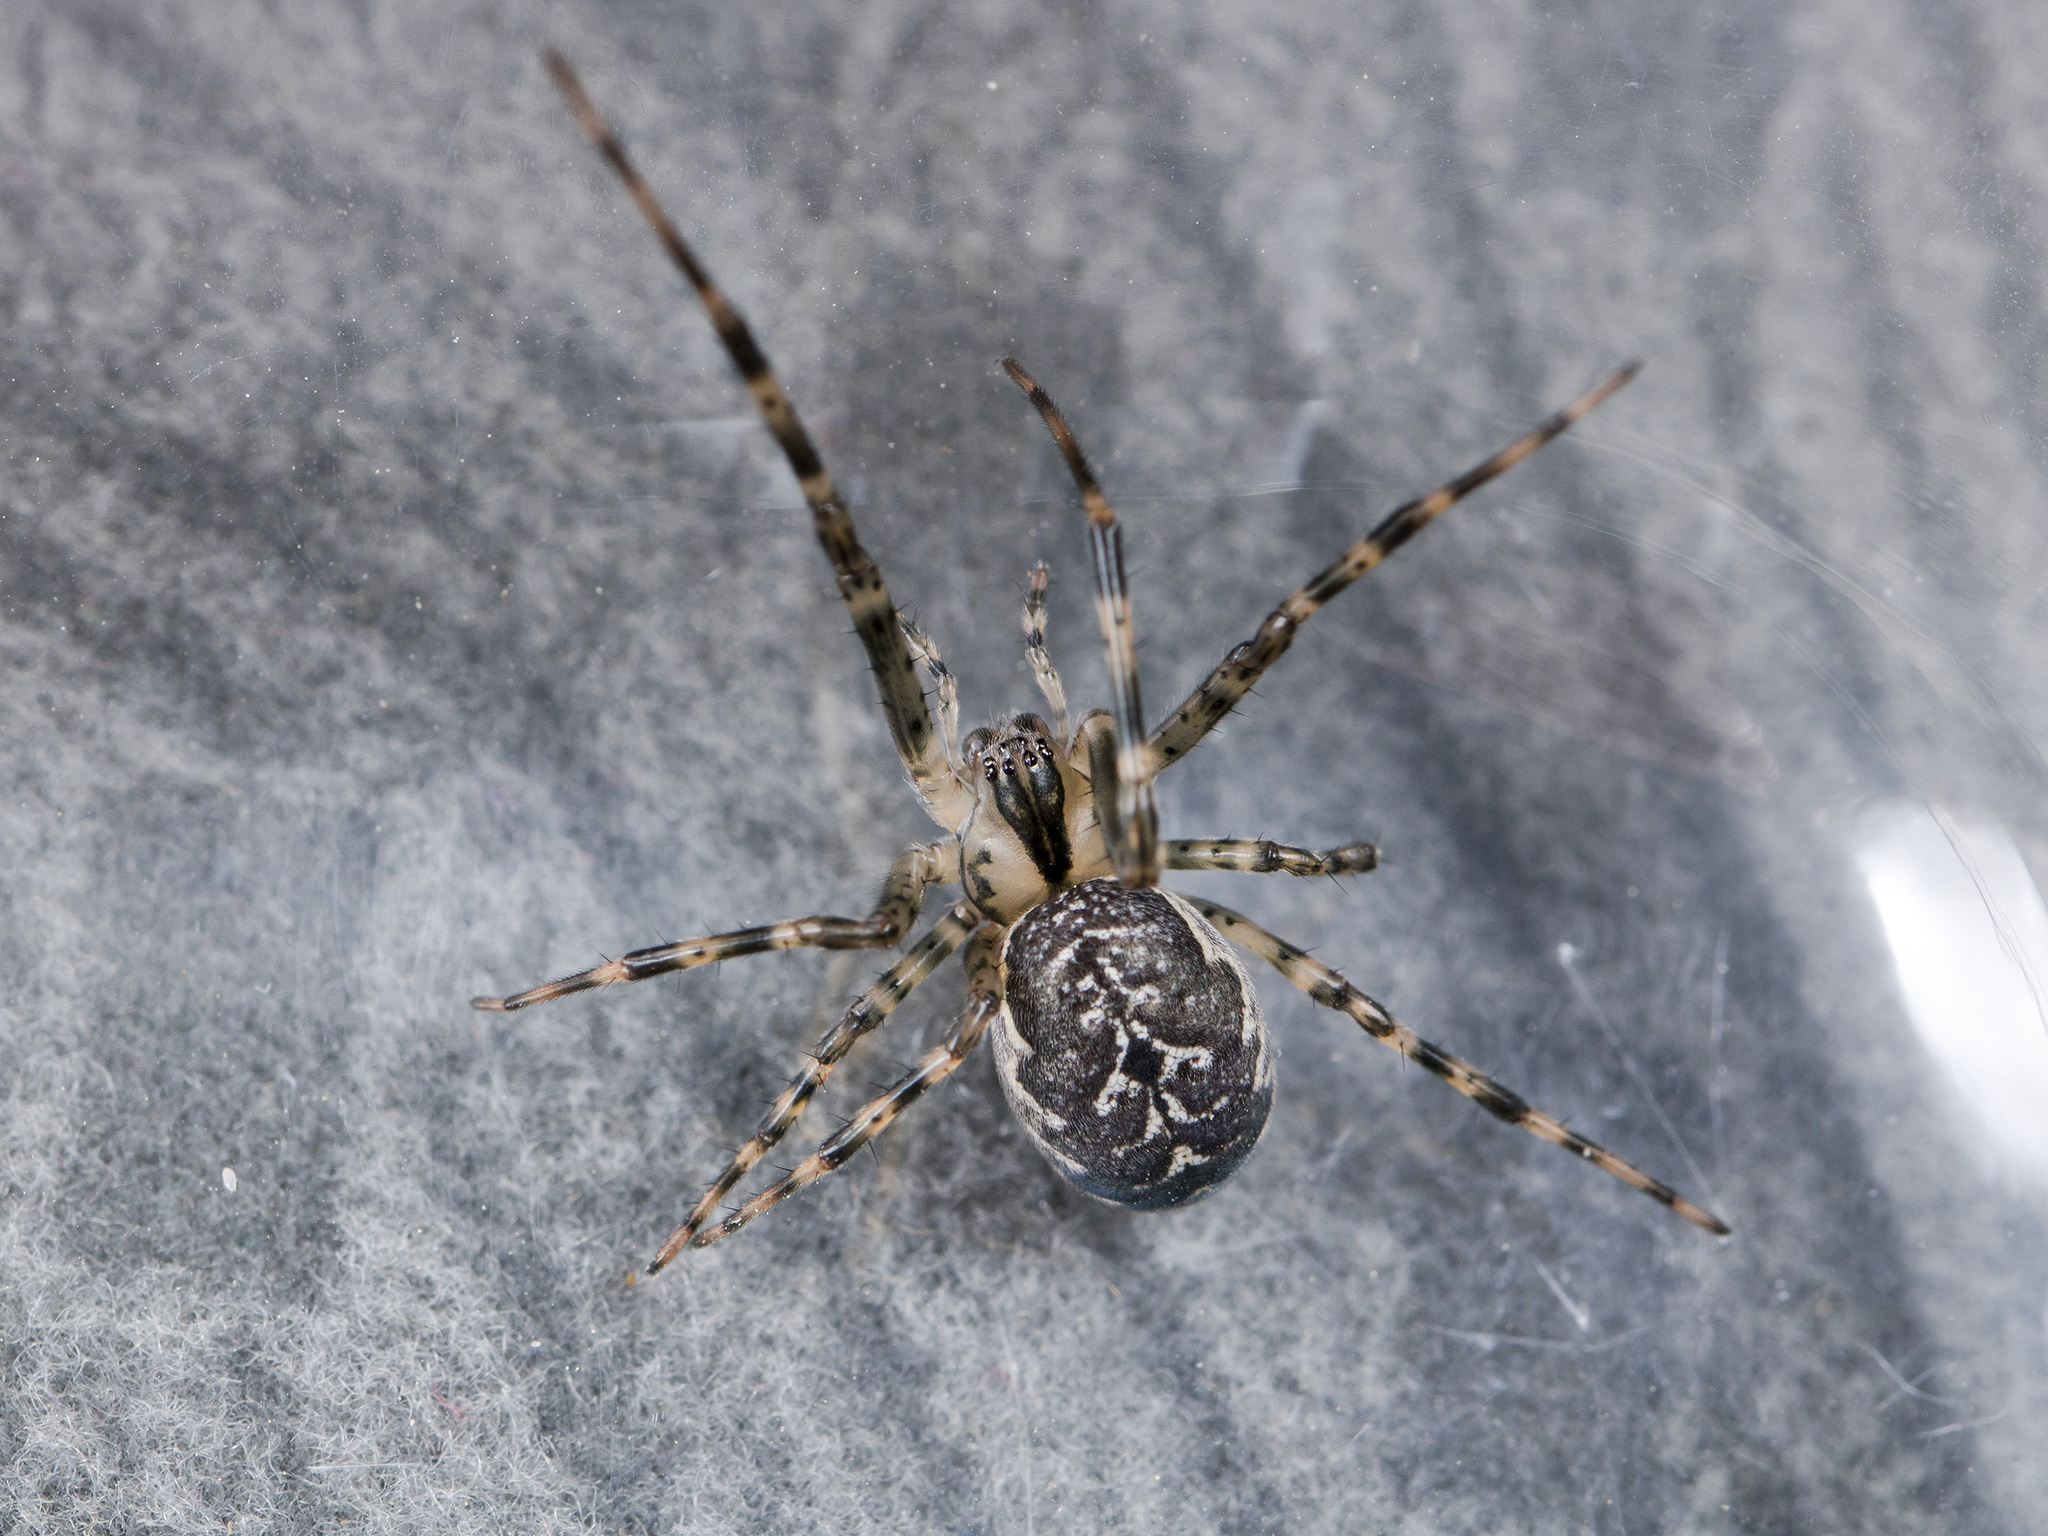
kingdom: Animalia
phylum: Arthropoda
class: Arachnida
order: Araneae
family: Tetragnathidae
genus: Metleucauge
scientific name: Metleucauge dentipalpis
